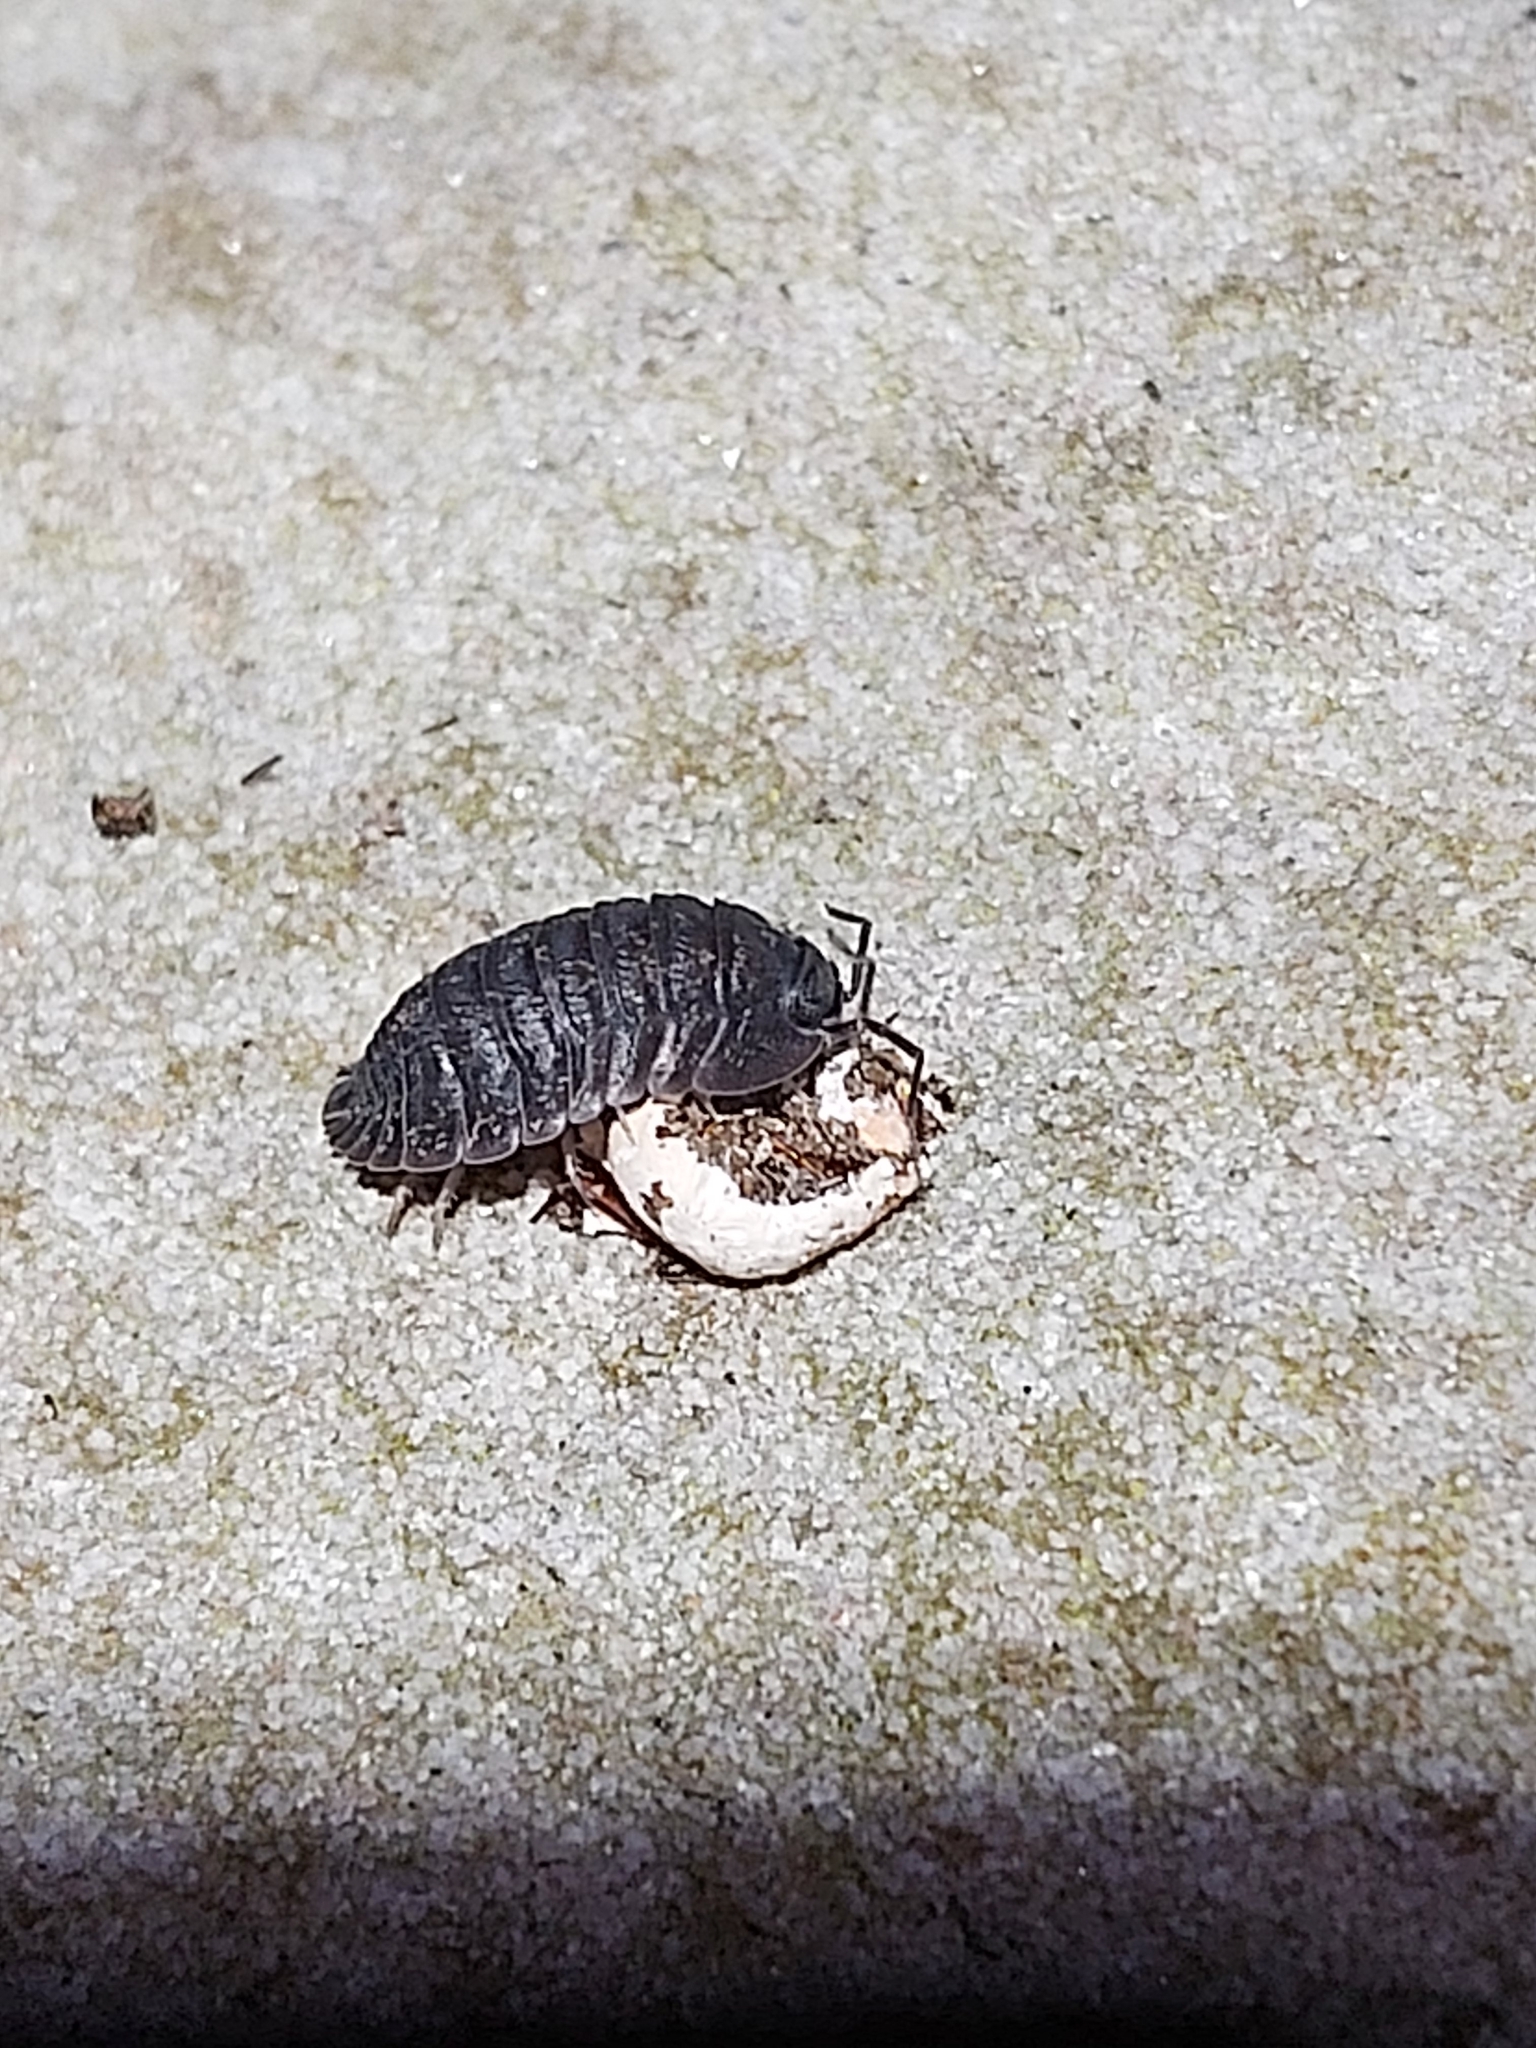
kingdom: Animalia
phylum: Arthropoda
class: Malacostraca
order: Isopoda
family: Armadillidae
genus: Merulana
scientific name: Merulana helmsiana
